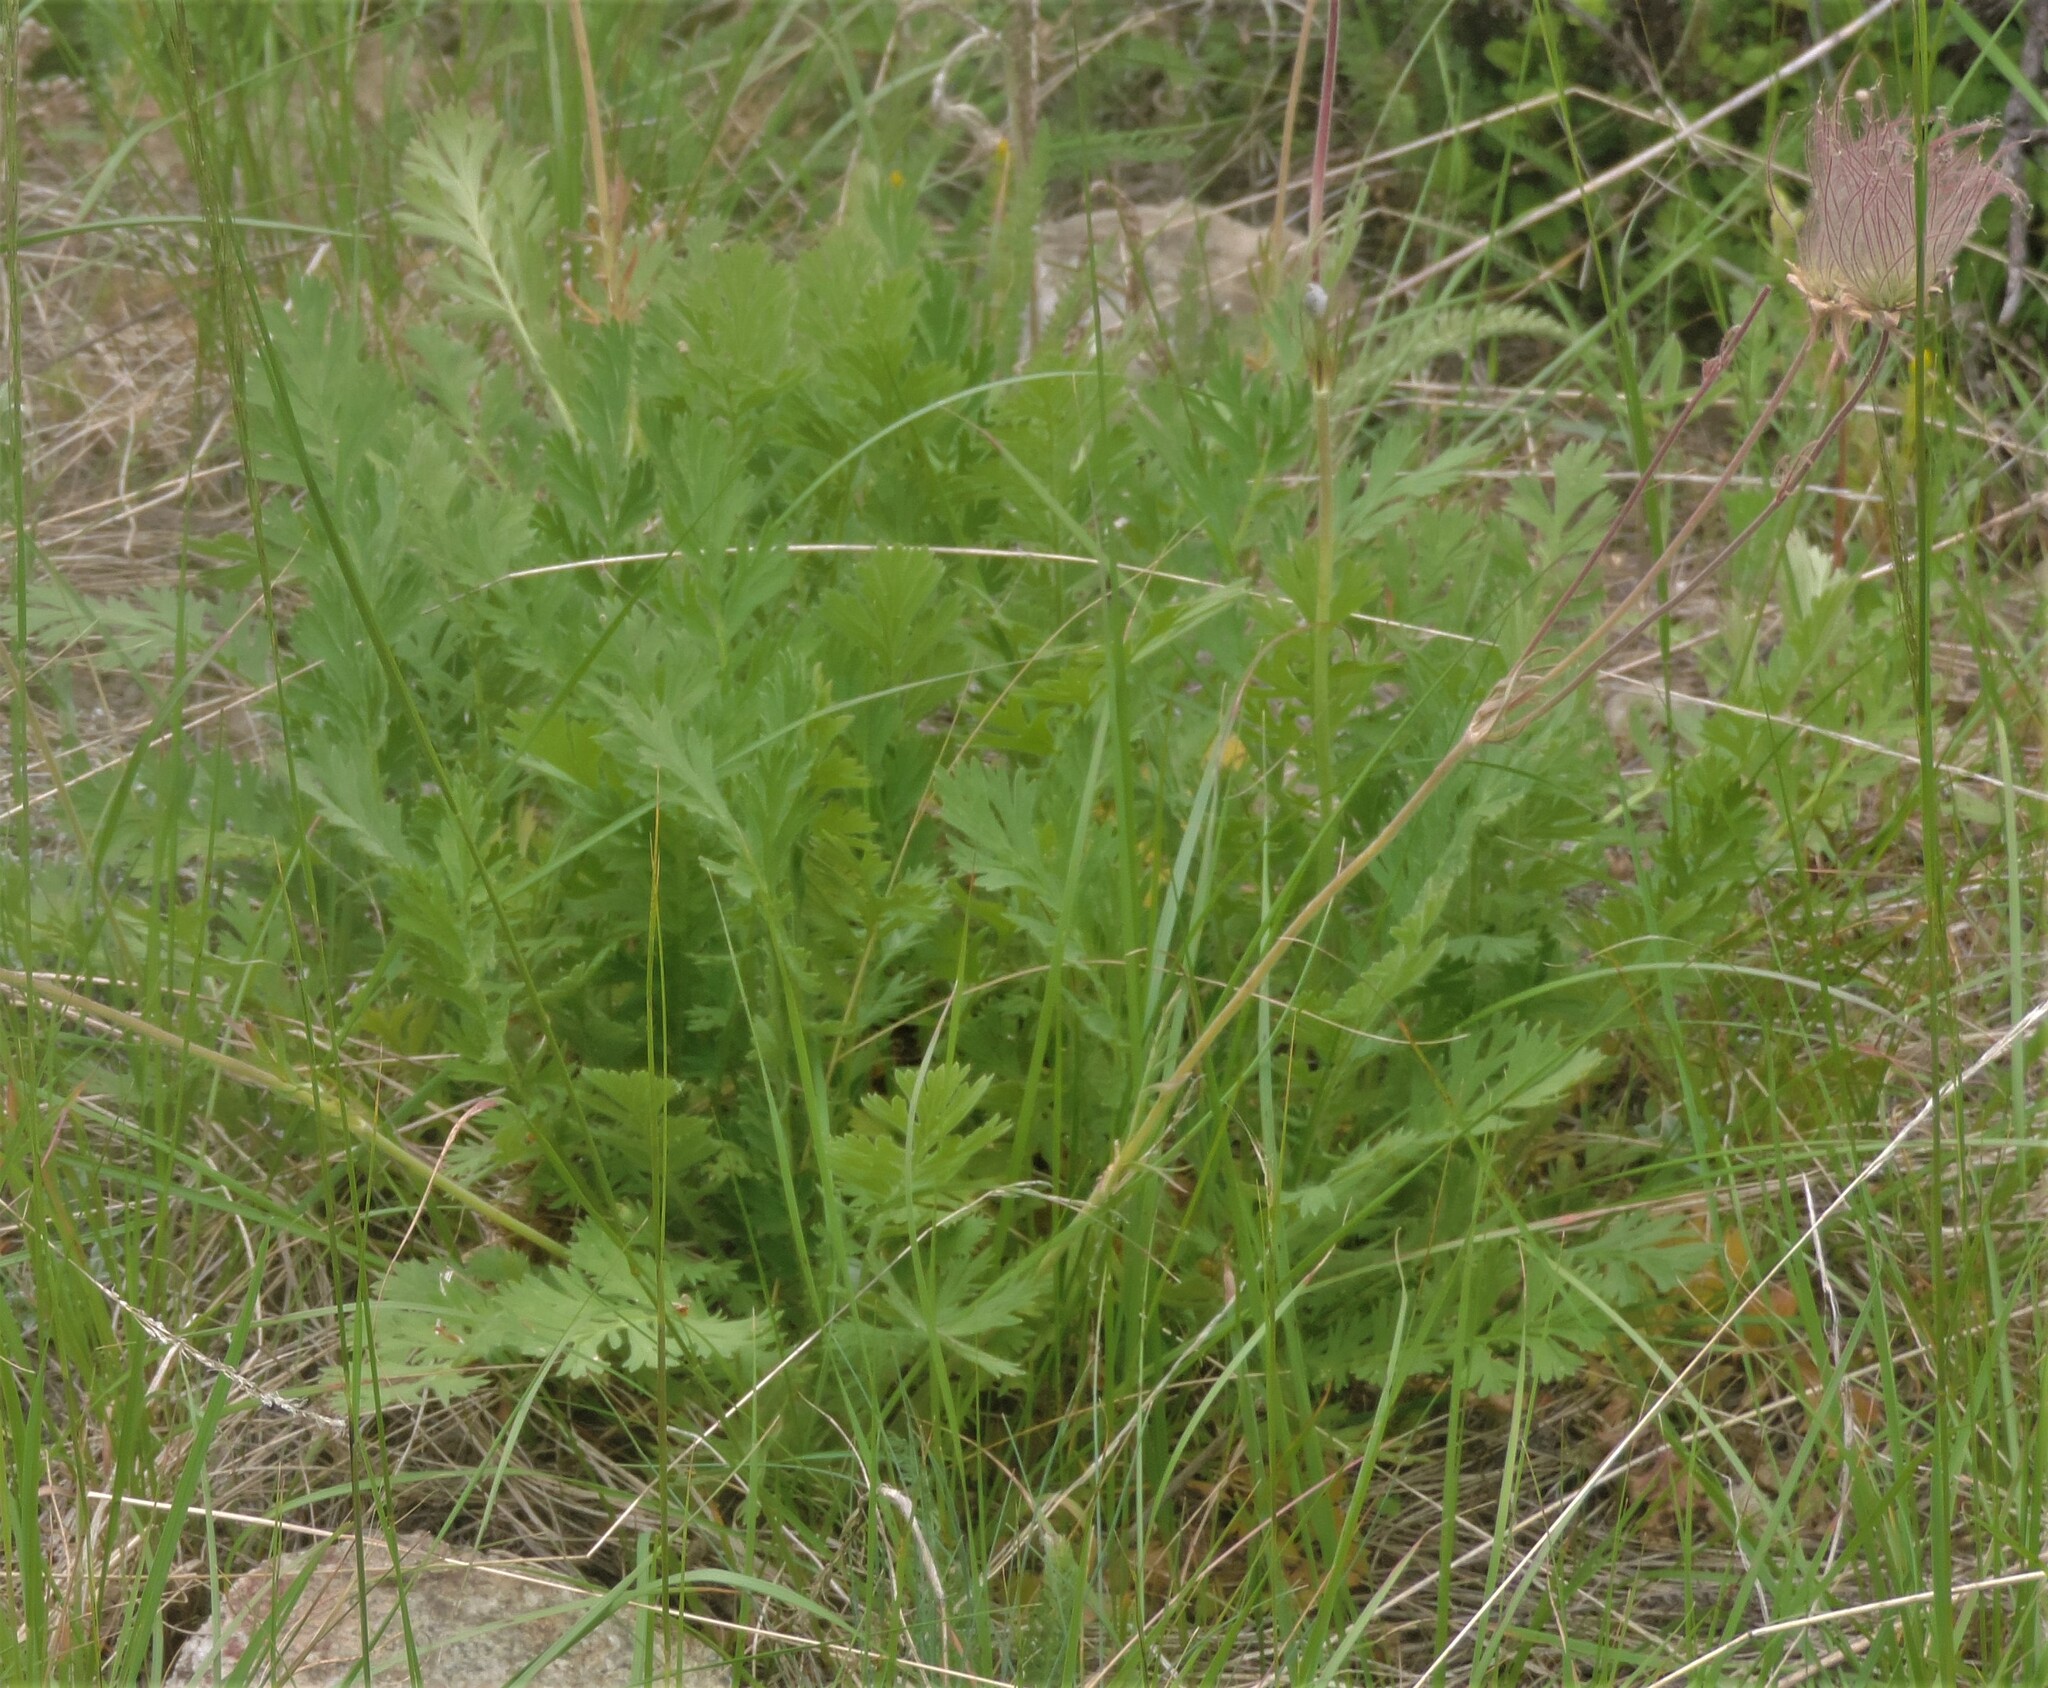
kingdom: Plantae
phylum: Tracheophyta
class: Magnoliopsida
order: Rosales
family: Rosaceae
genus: Geum
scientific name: Geum triflorum
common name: Old man's whiskers
